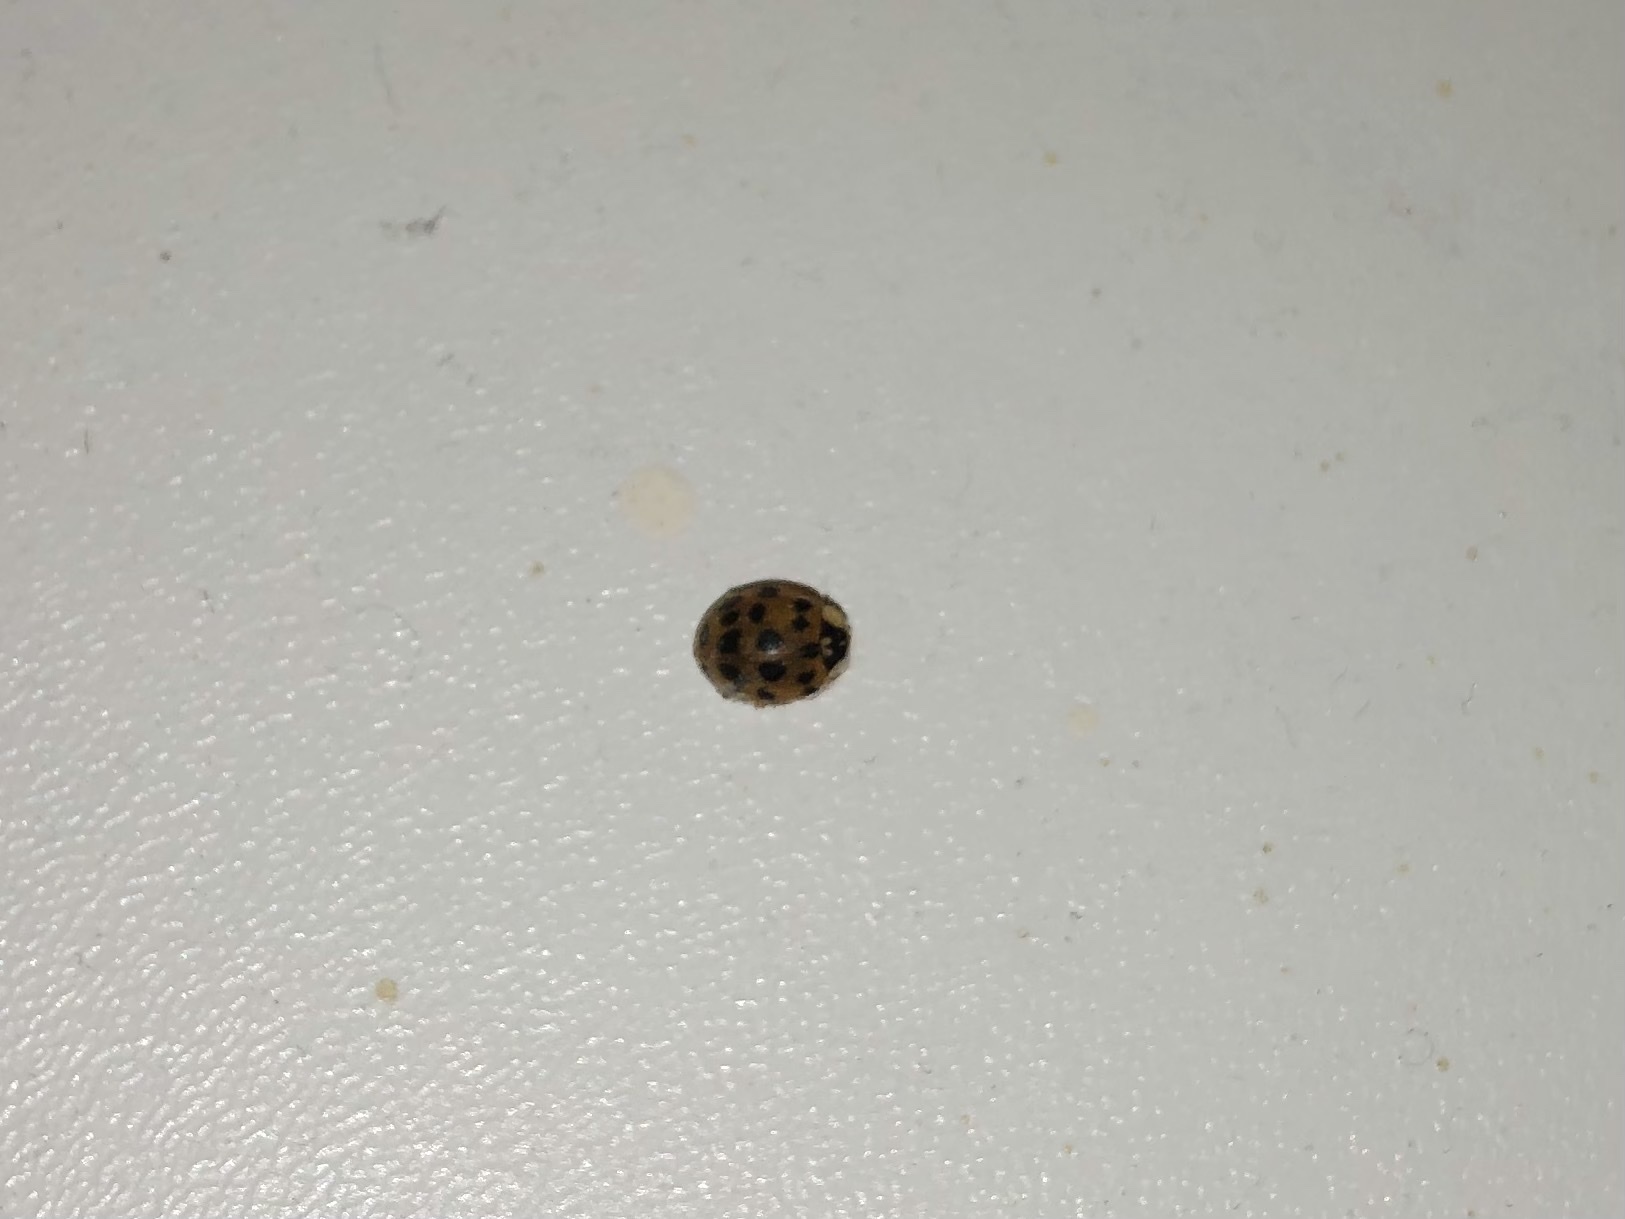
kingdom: Animalia
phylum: Arthropoda
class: Insecta
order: Coleoptera
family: Coccinellidae
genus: Harmonia
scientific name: Harmonia axyridis
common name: Harlequin ladybird
